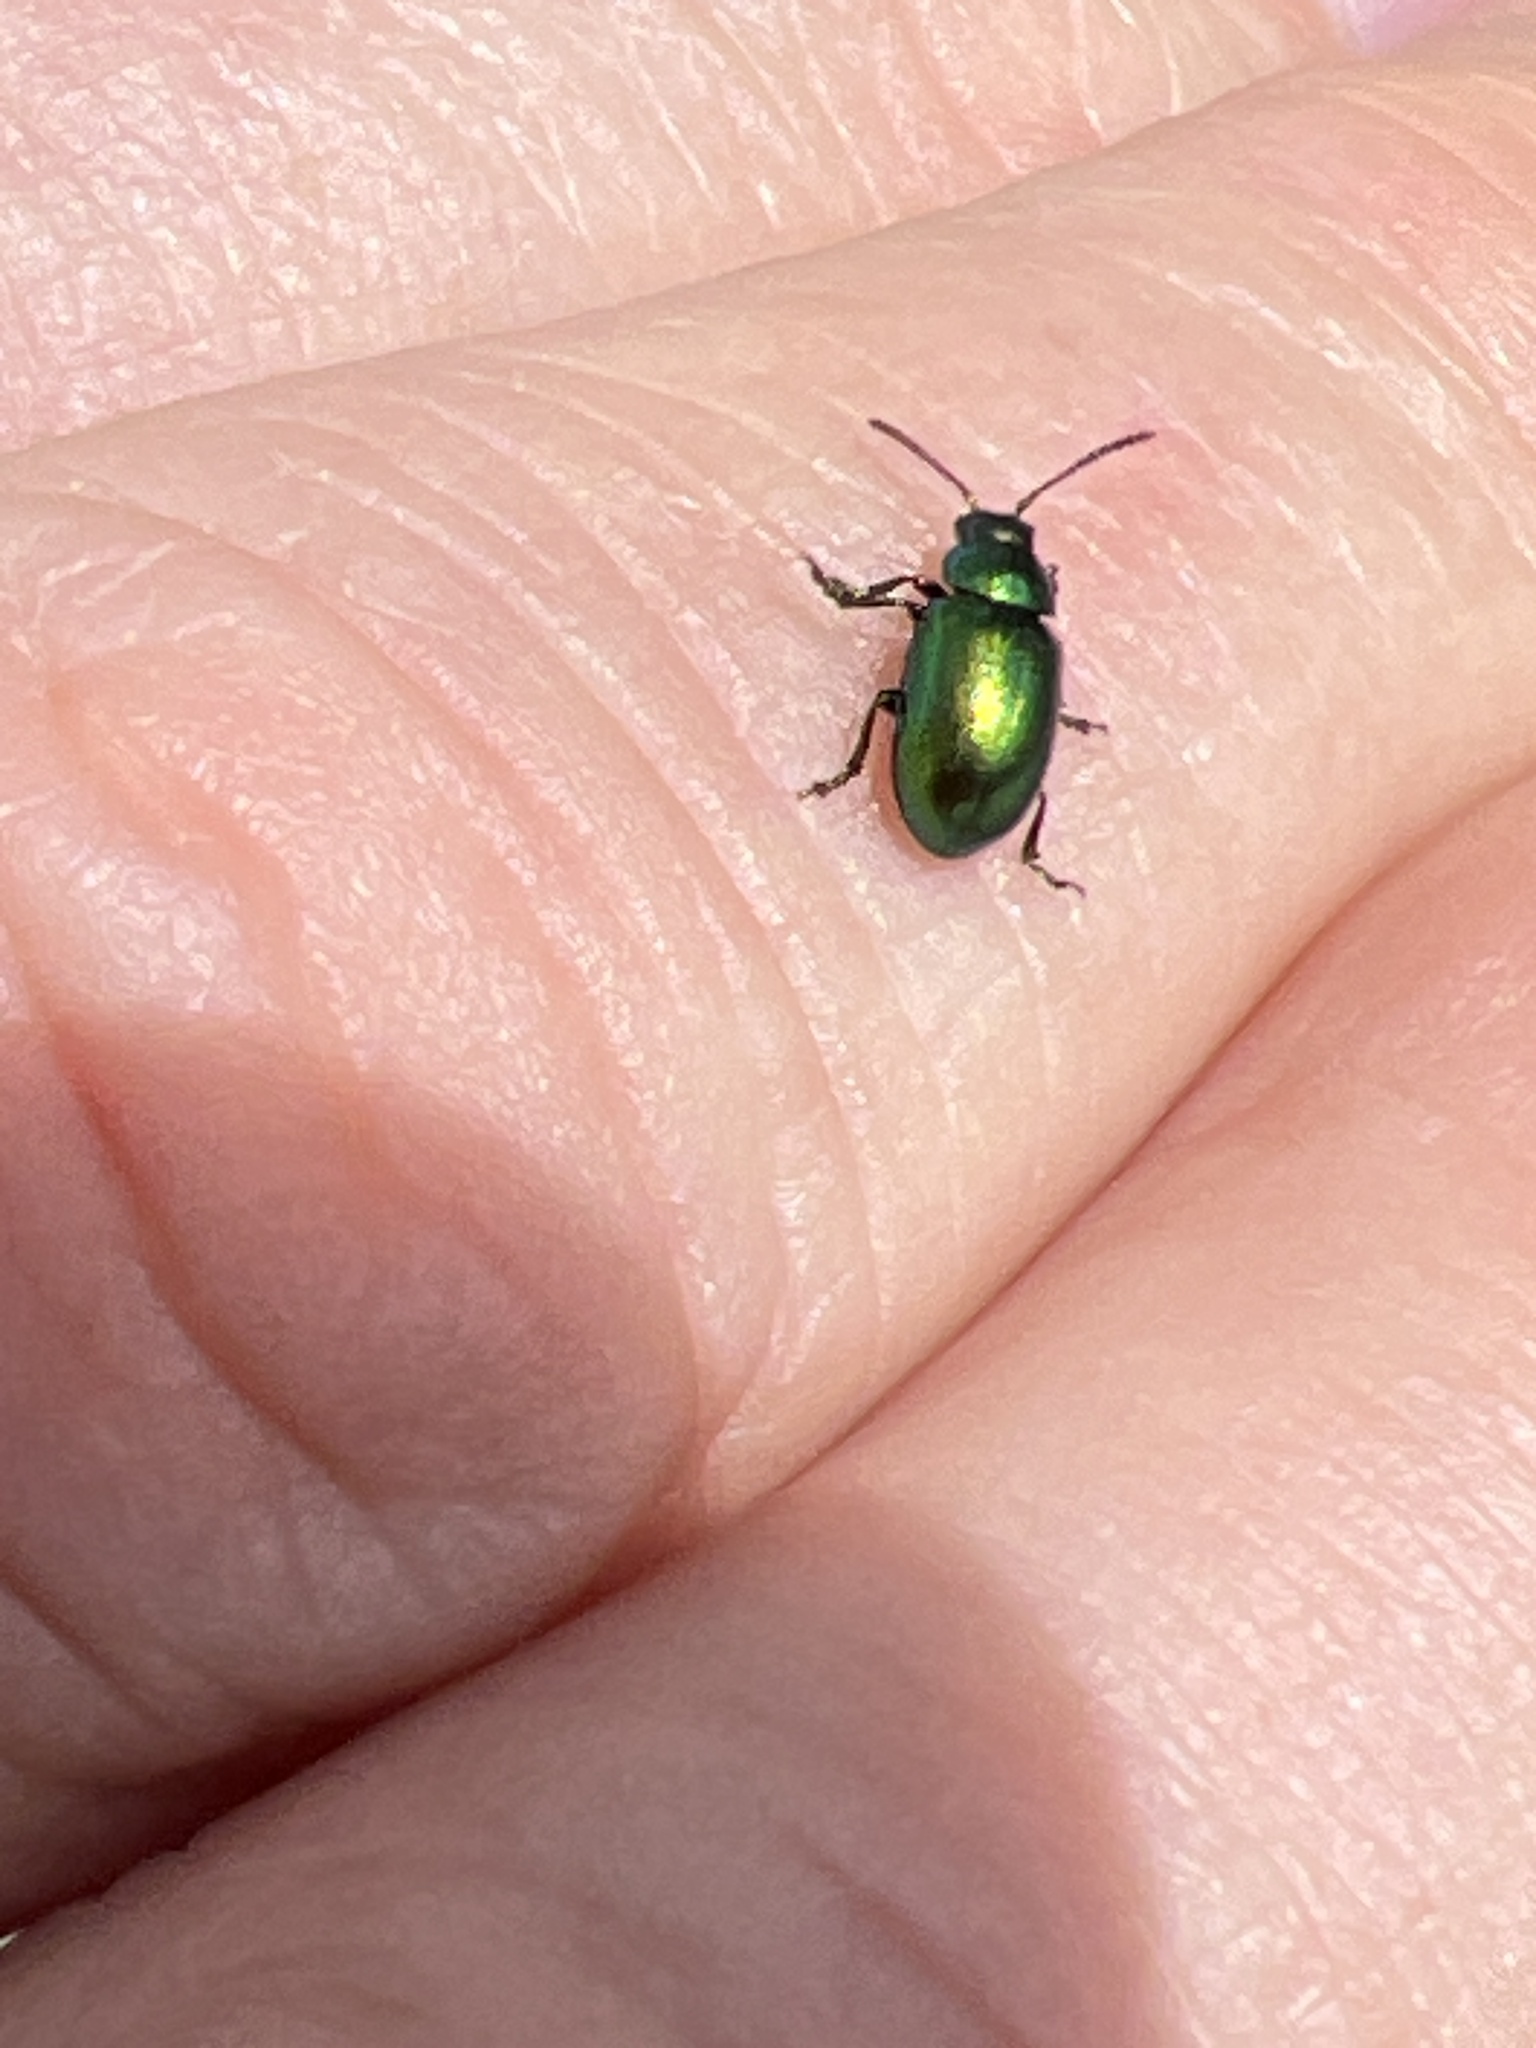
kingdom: Animalia
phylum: Arthropoda
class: Insecta
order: Coleoptera
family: Chrysomelidae
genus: Gastrophysa
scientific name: Gastrophysa viridula
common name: Green dock beetle
